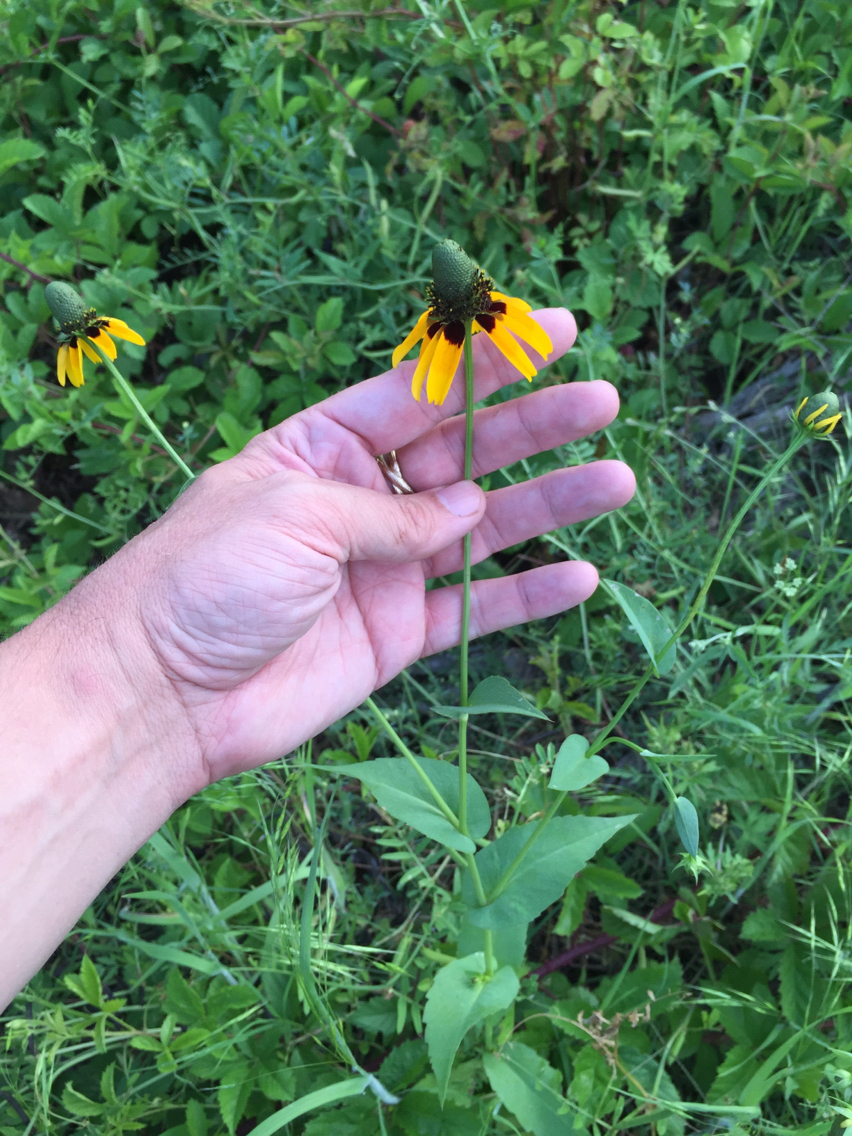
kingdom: Plantae
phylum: Tracheophyta
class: Magnoliopsida
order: Asterales
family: Asteraceae
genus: Rudbeckia
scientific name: Rudbeckia amplexicaulis
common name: Clasping-leaf coneflower
